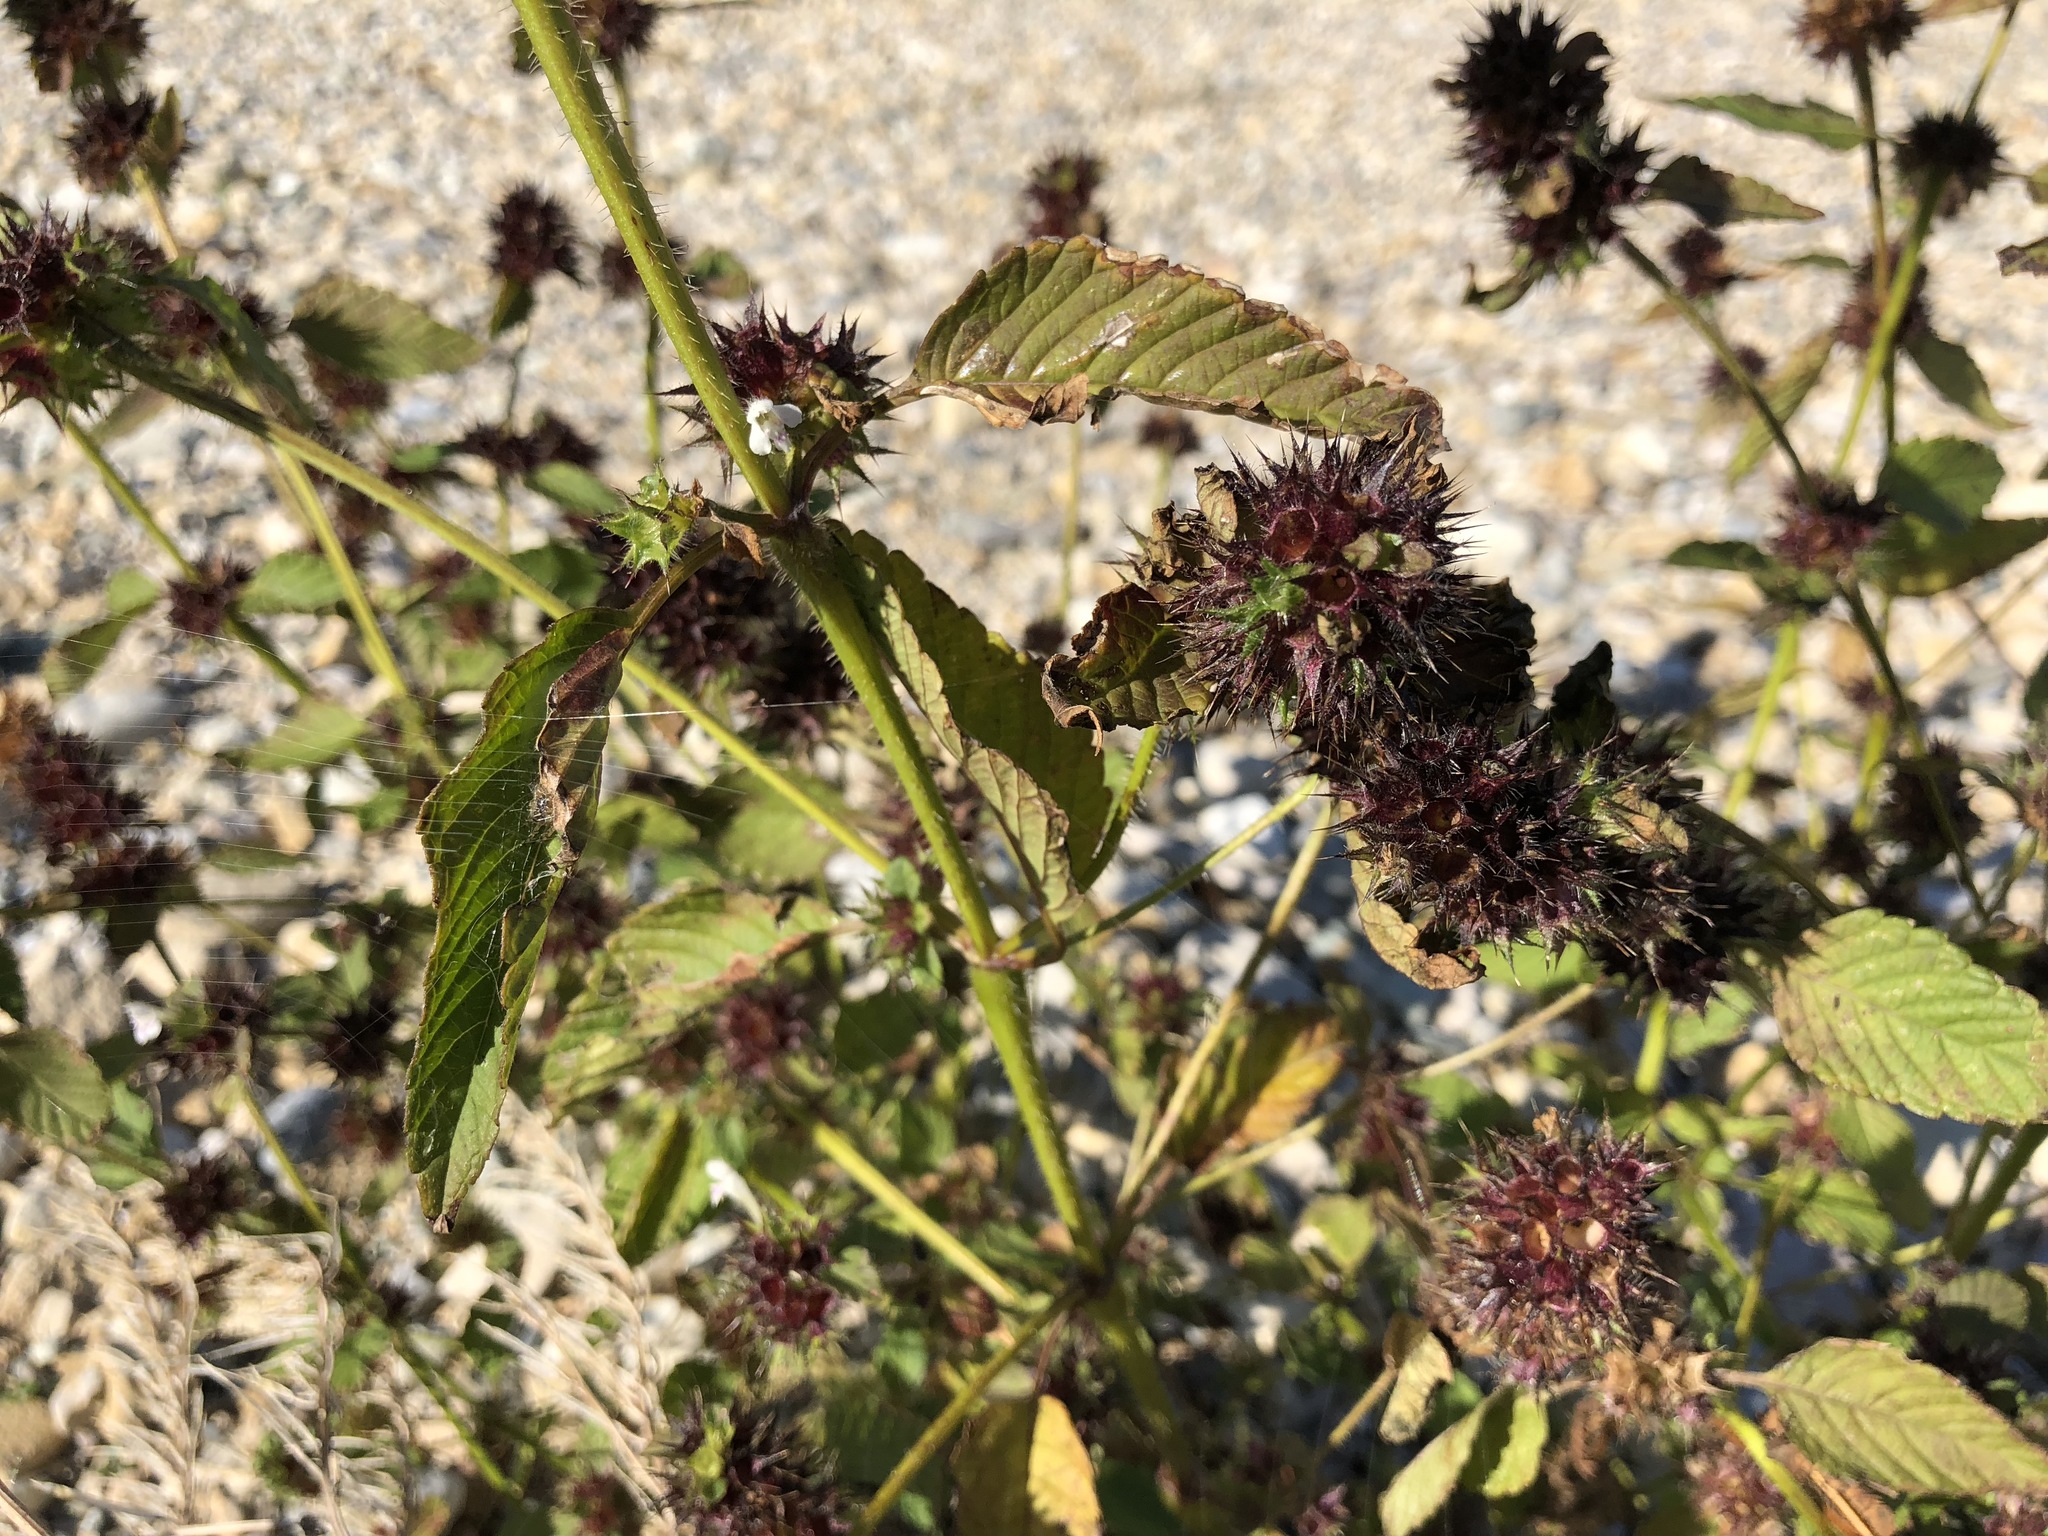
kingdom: Plantae
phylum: Tracheophyta
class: Magnoliopsida
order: Lamiales
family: Lamiaceae
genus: Galeopsis
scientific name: Galeopsis tetrahit
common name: Common hemp-nettle
